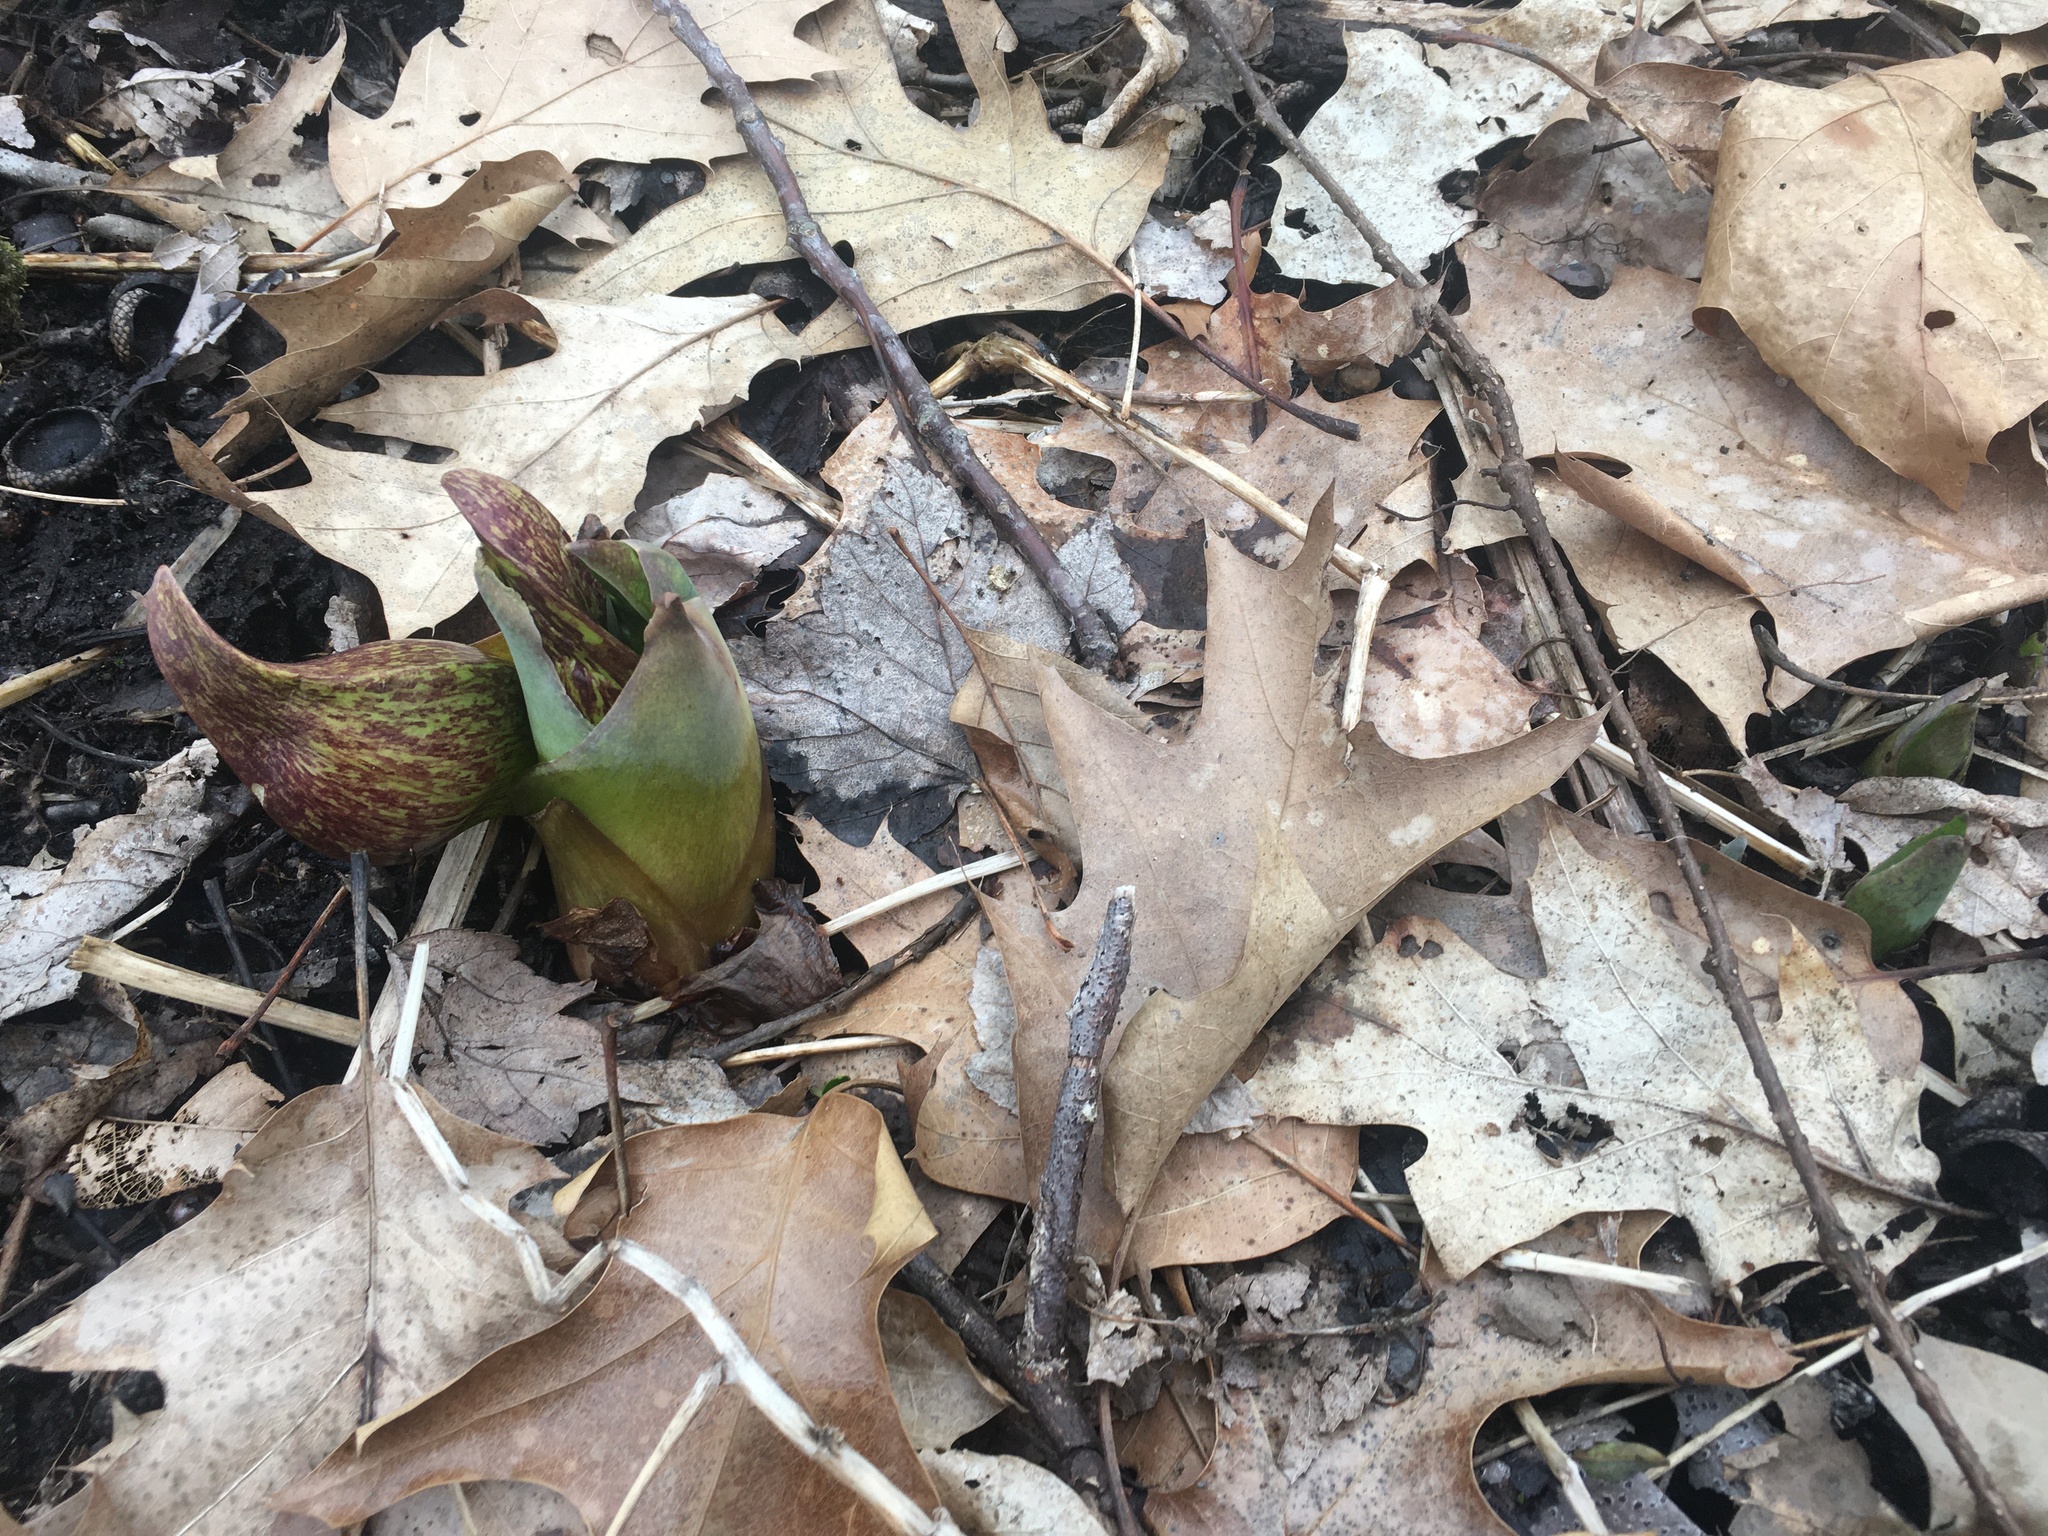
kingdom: Plantae
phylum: Tracheophyta
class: Liliopsida
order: Alismatales
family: Araceae
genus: Symplocarpus
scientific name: Symplocarpus foetidus
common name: Eastern skunk cabbage
